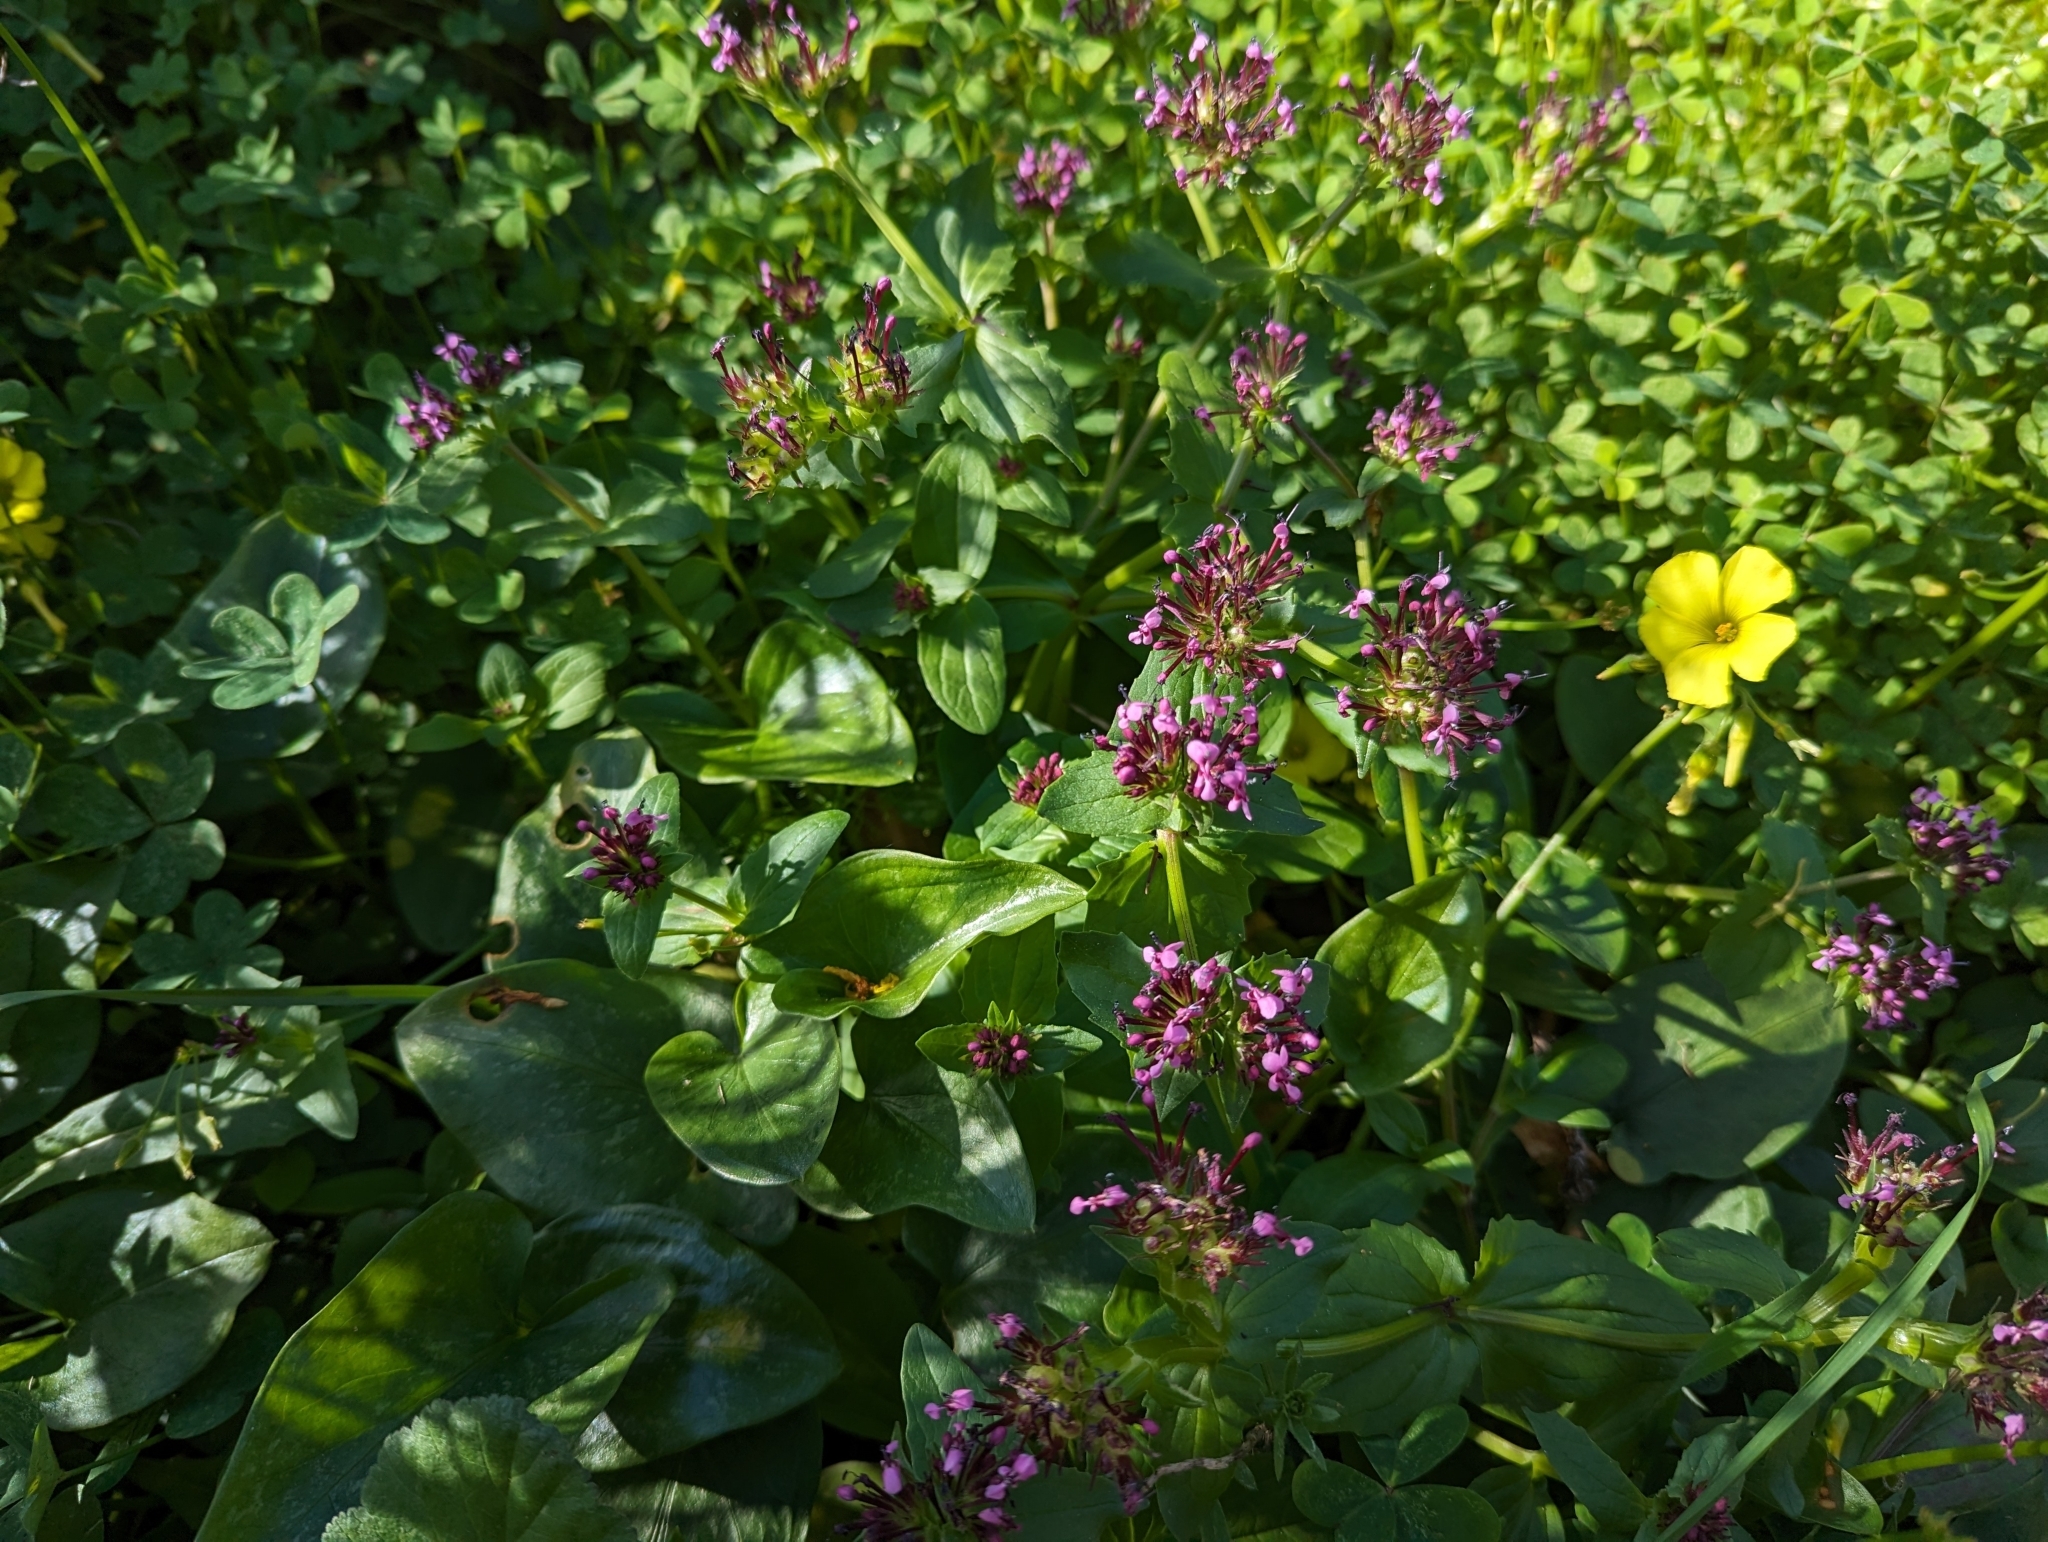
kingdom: Plantae
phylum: Tracheophyta
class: Magnoliopsida
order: Dipsacales
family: Caprifoliaceae
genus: Fedia
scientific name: Fedia cornucopiae
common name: Horn-of-plenty
